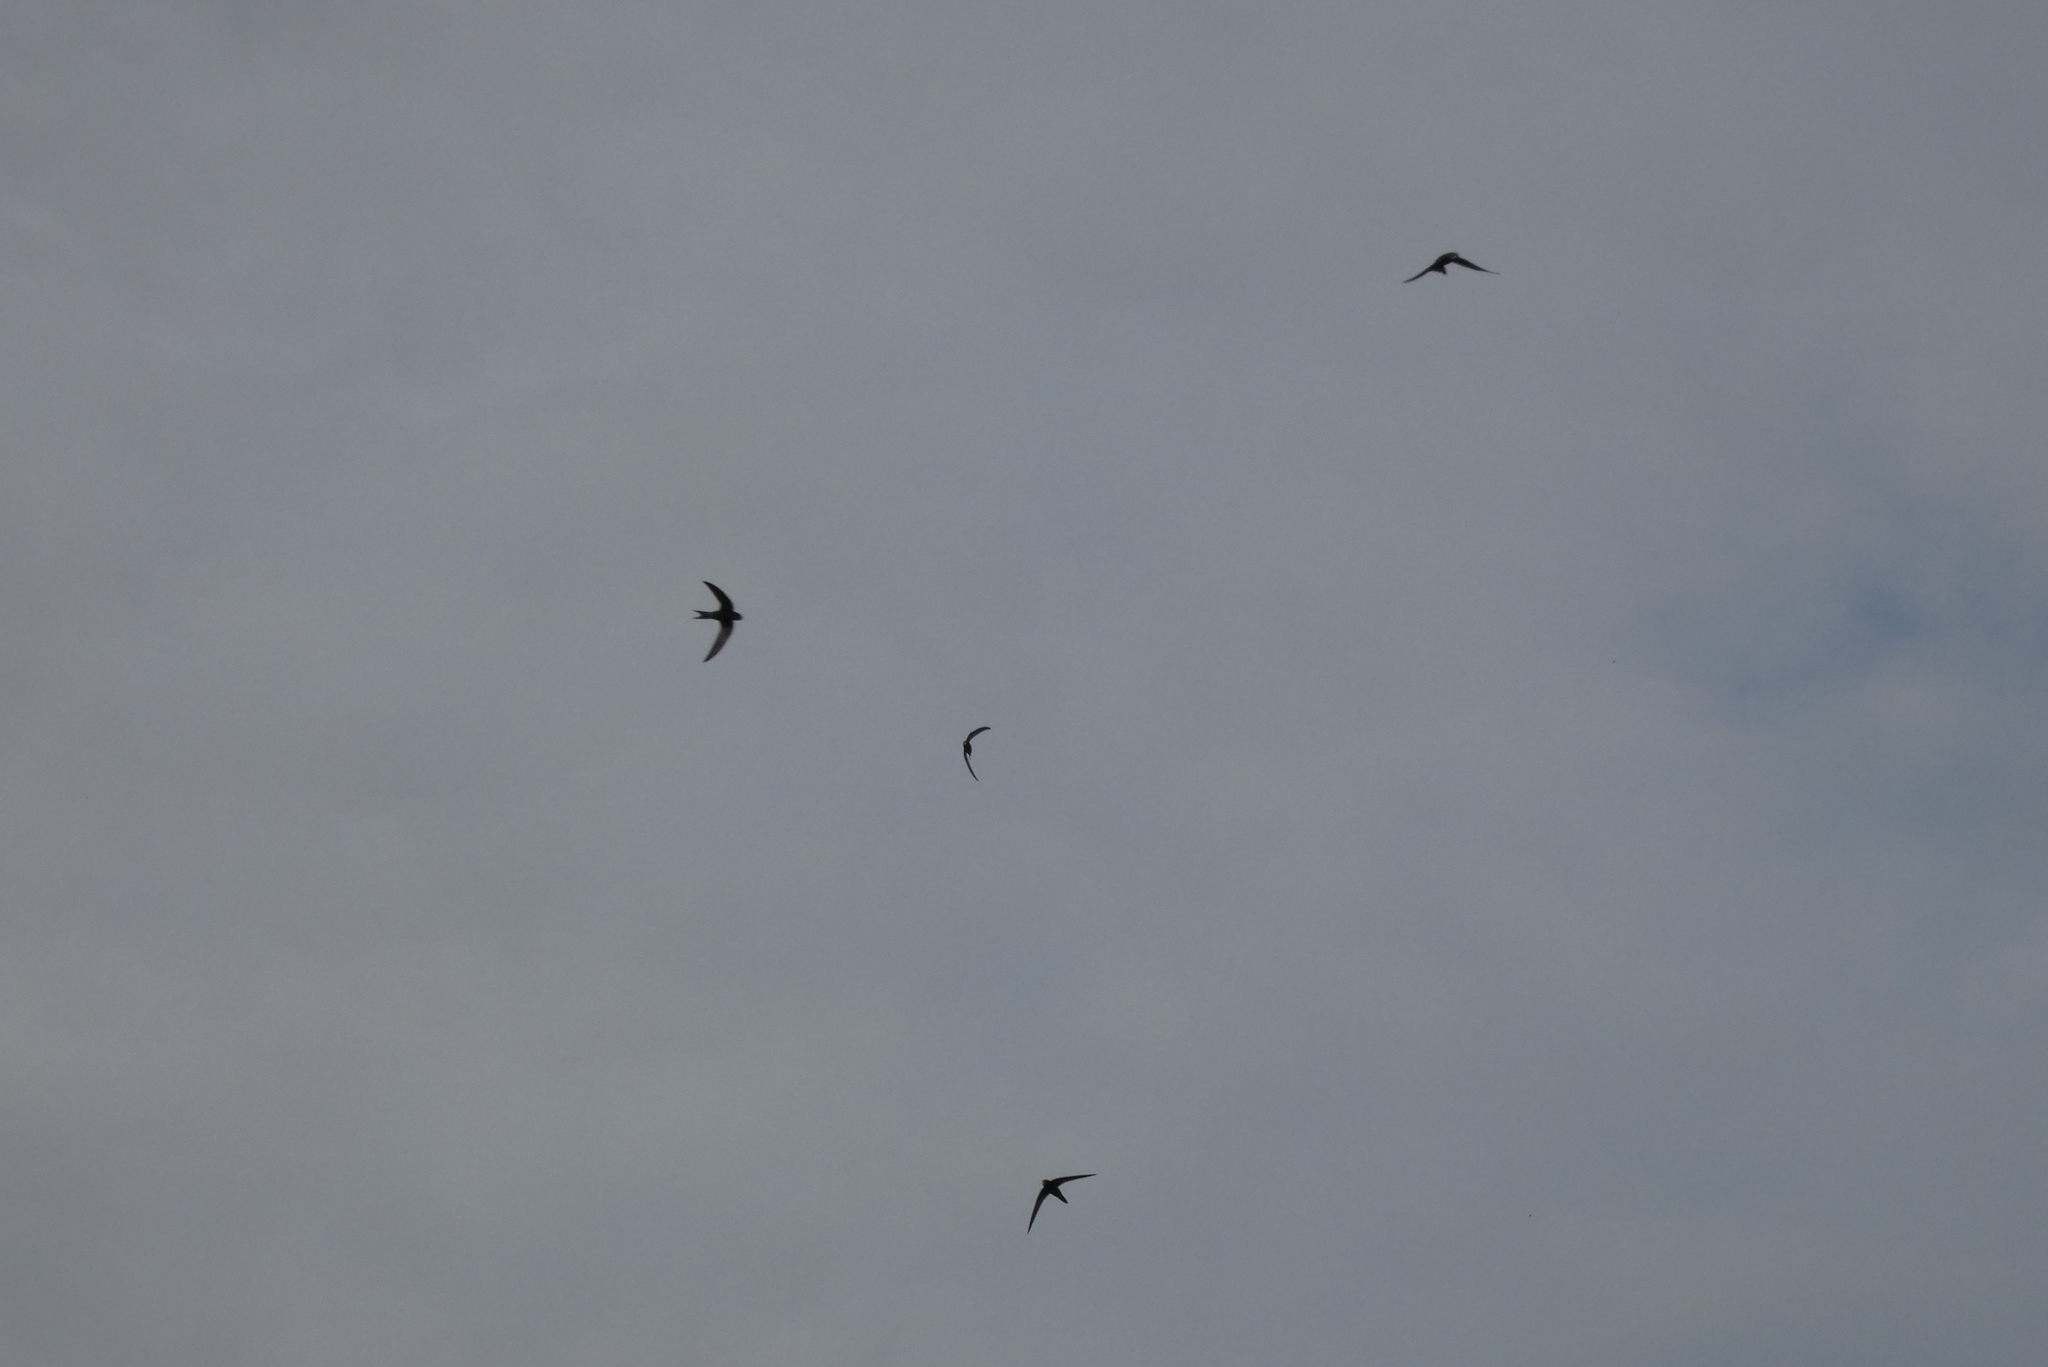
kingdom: Animalia
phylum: Chordata
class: Aves
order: Apodiformes
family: Apodidae
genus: Apus
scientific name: Apus apus
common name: Common swift
